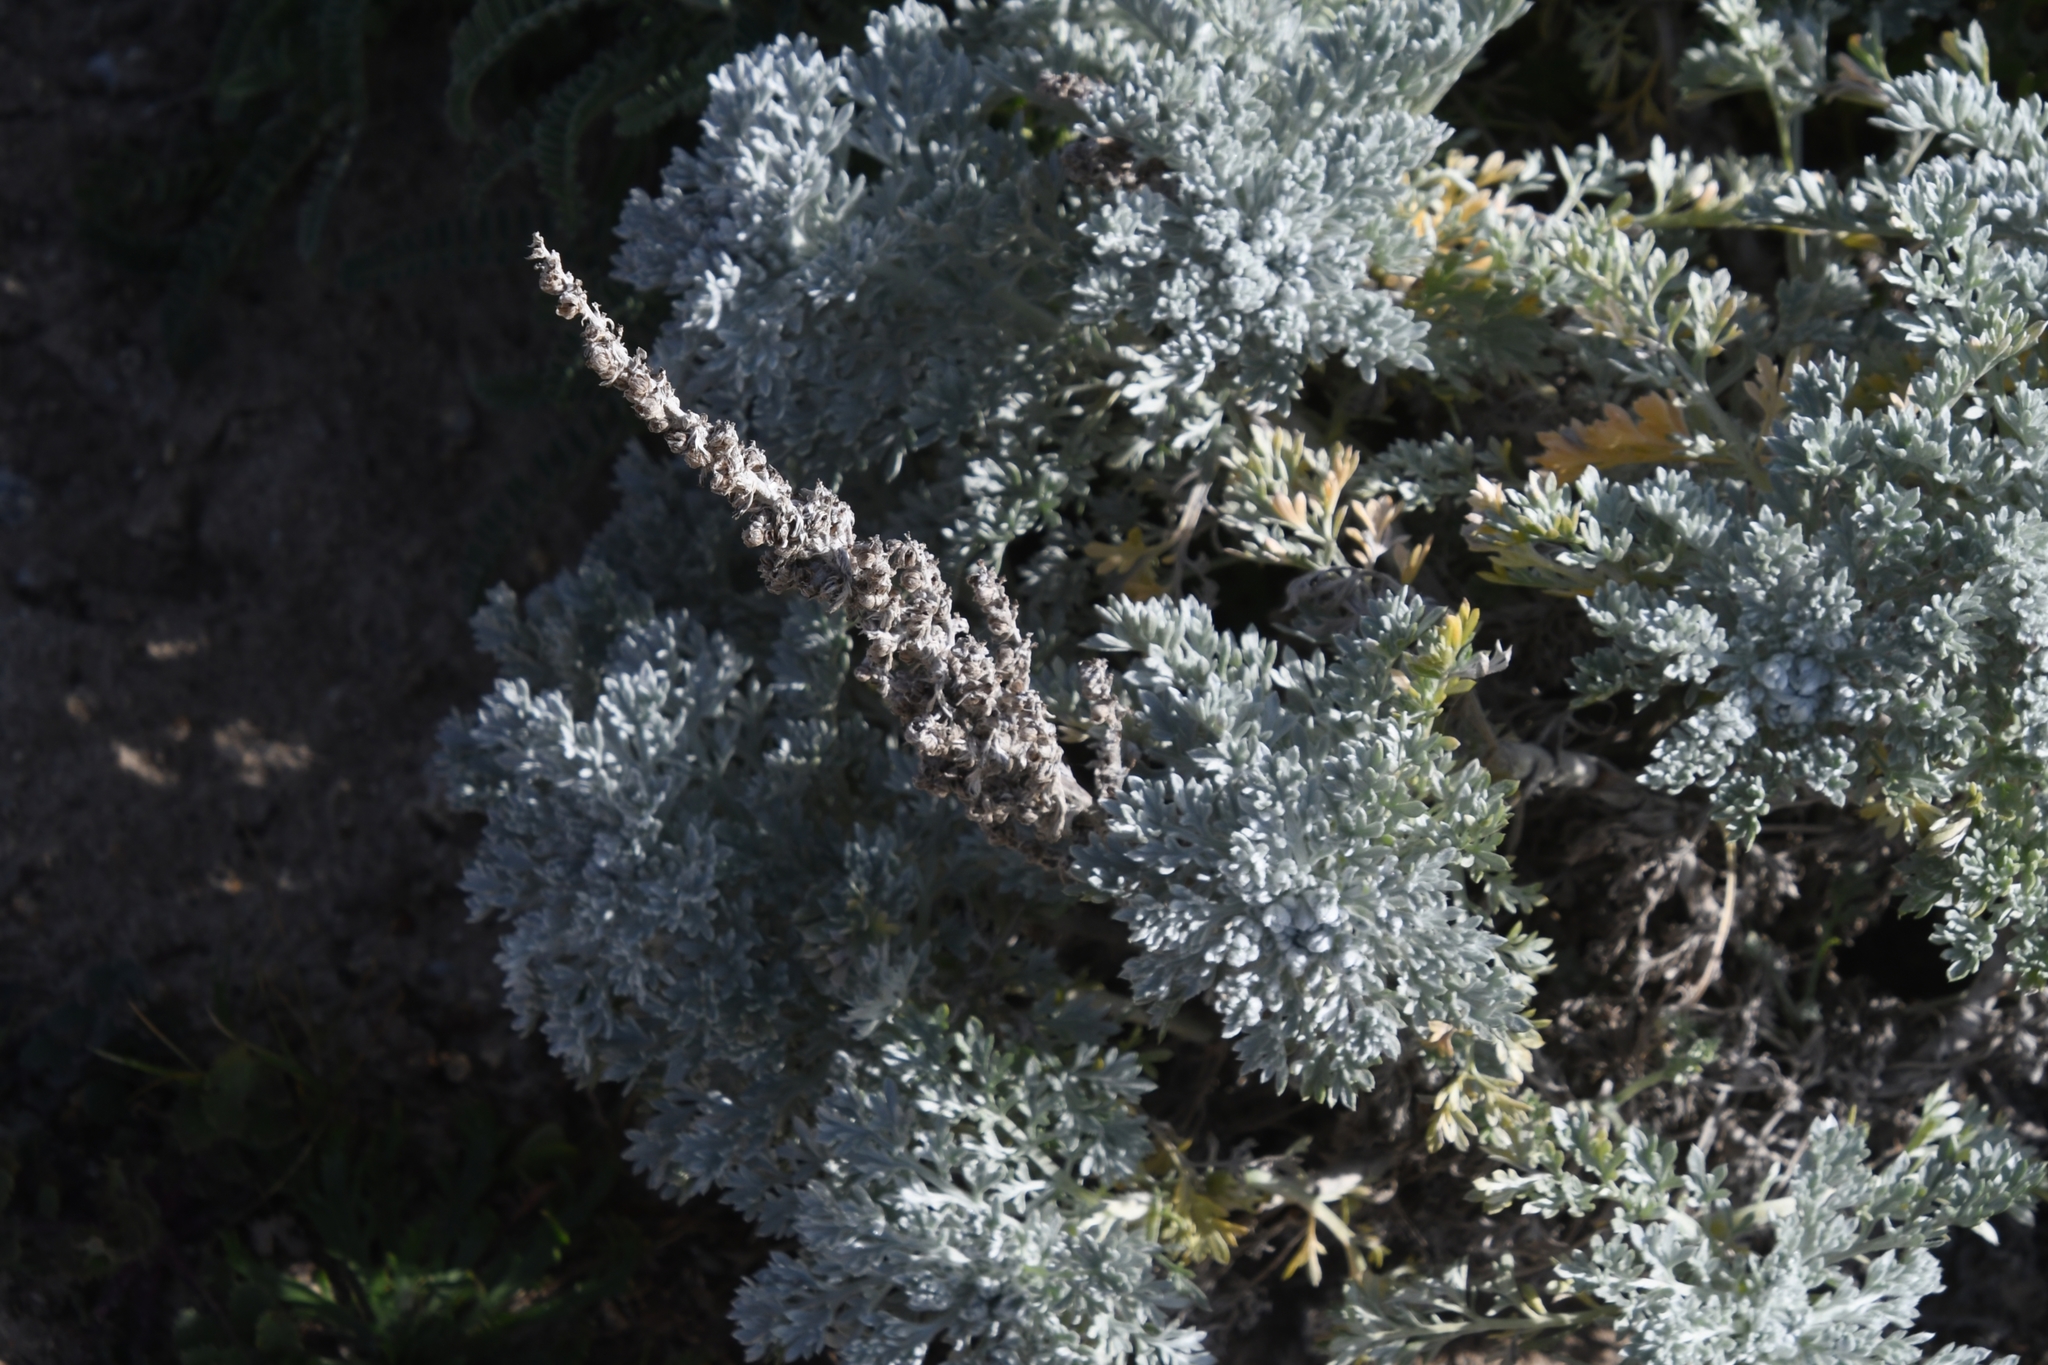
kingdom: Plantae
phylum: Tracheophyta
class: Magnoliopsida
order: Asterales
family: Asteraceae
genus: Artemisia
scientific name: Artemisia pycnocephala
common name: Coastal sagewort
